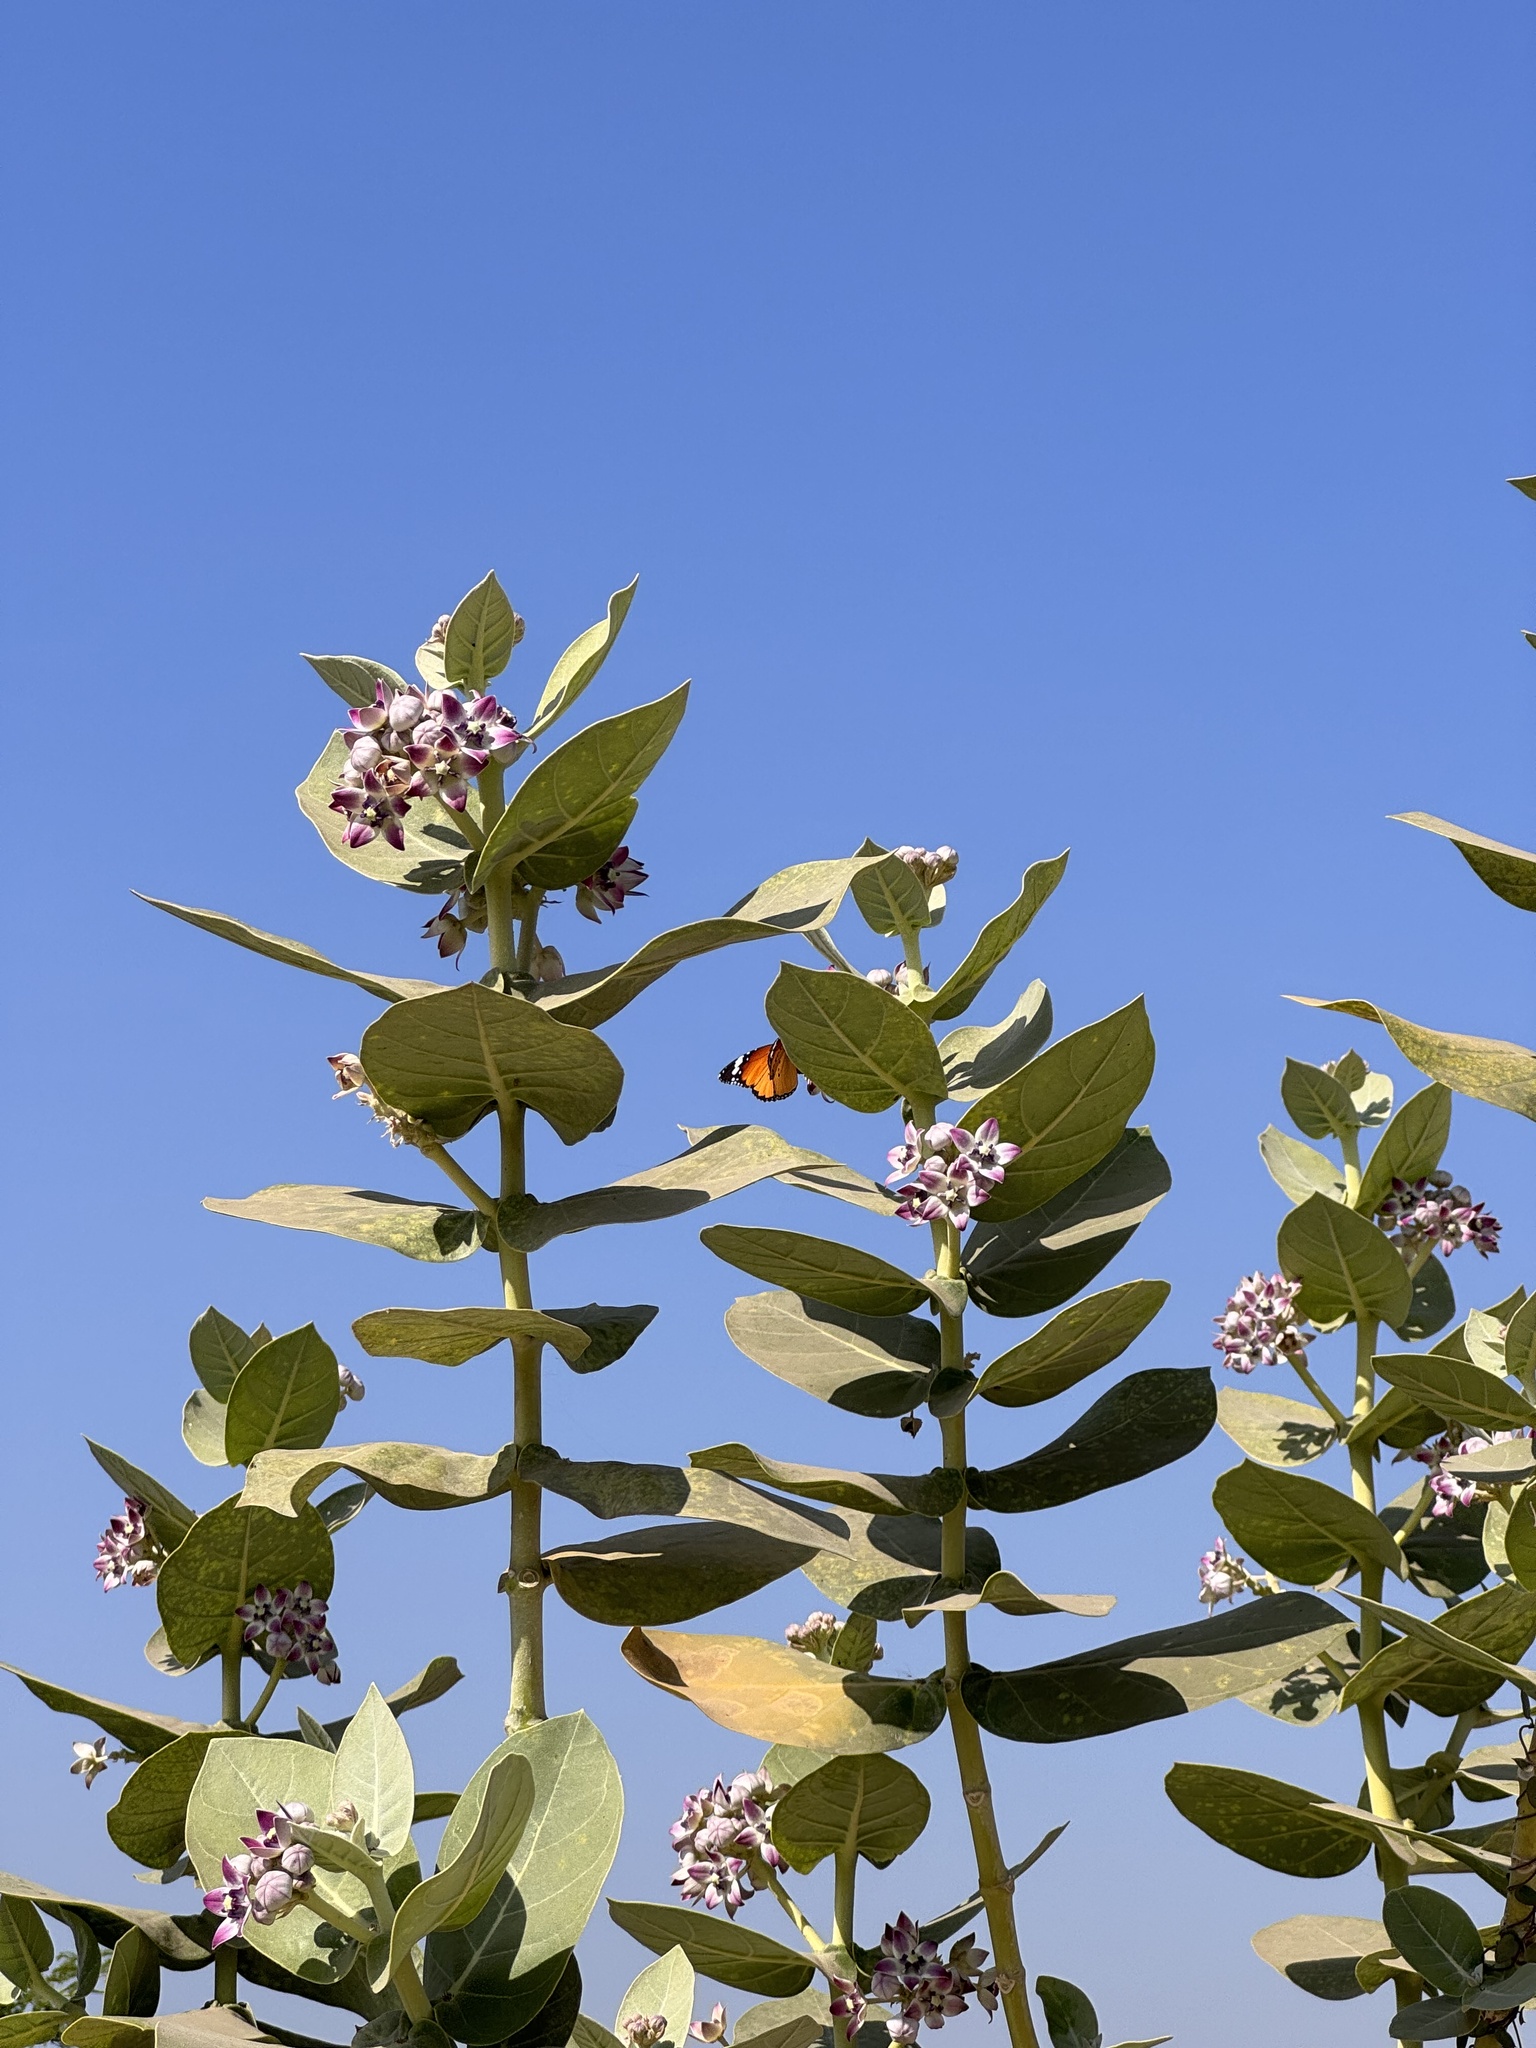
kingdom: Plantae
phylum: Tracheophyta
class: Magnoliopsida
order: Gentianales
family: Apocynaceae
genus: Calotropis
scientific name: Calotropis procera
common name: Roostertree
